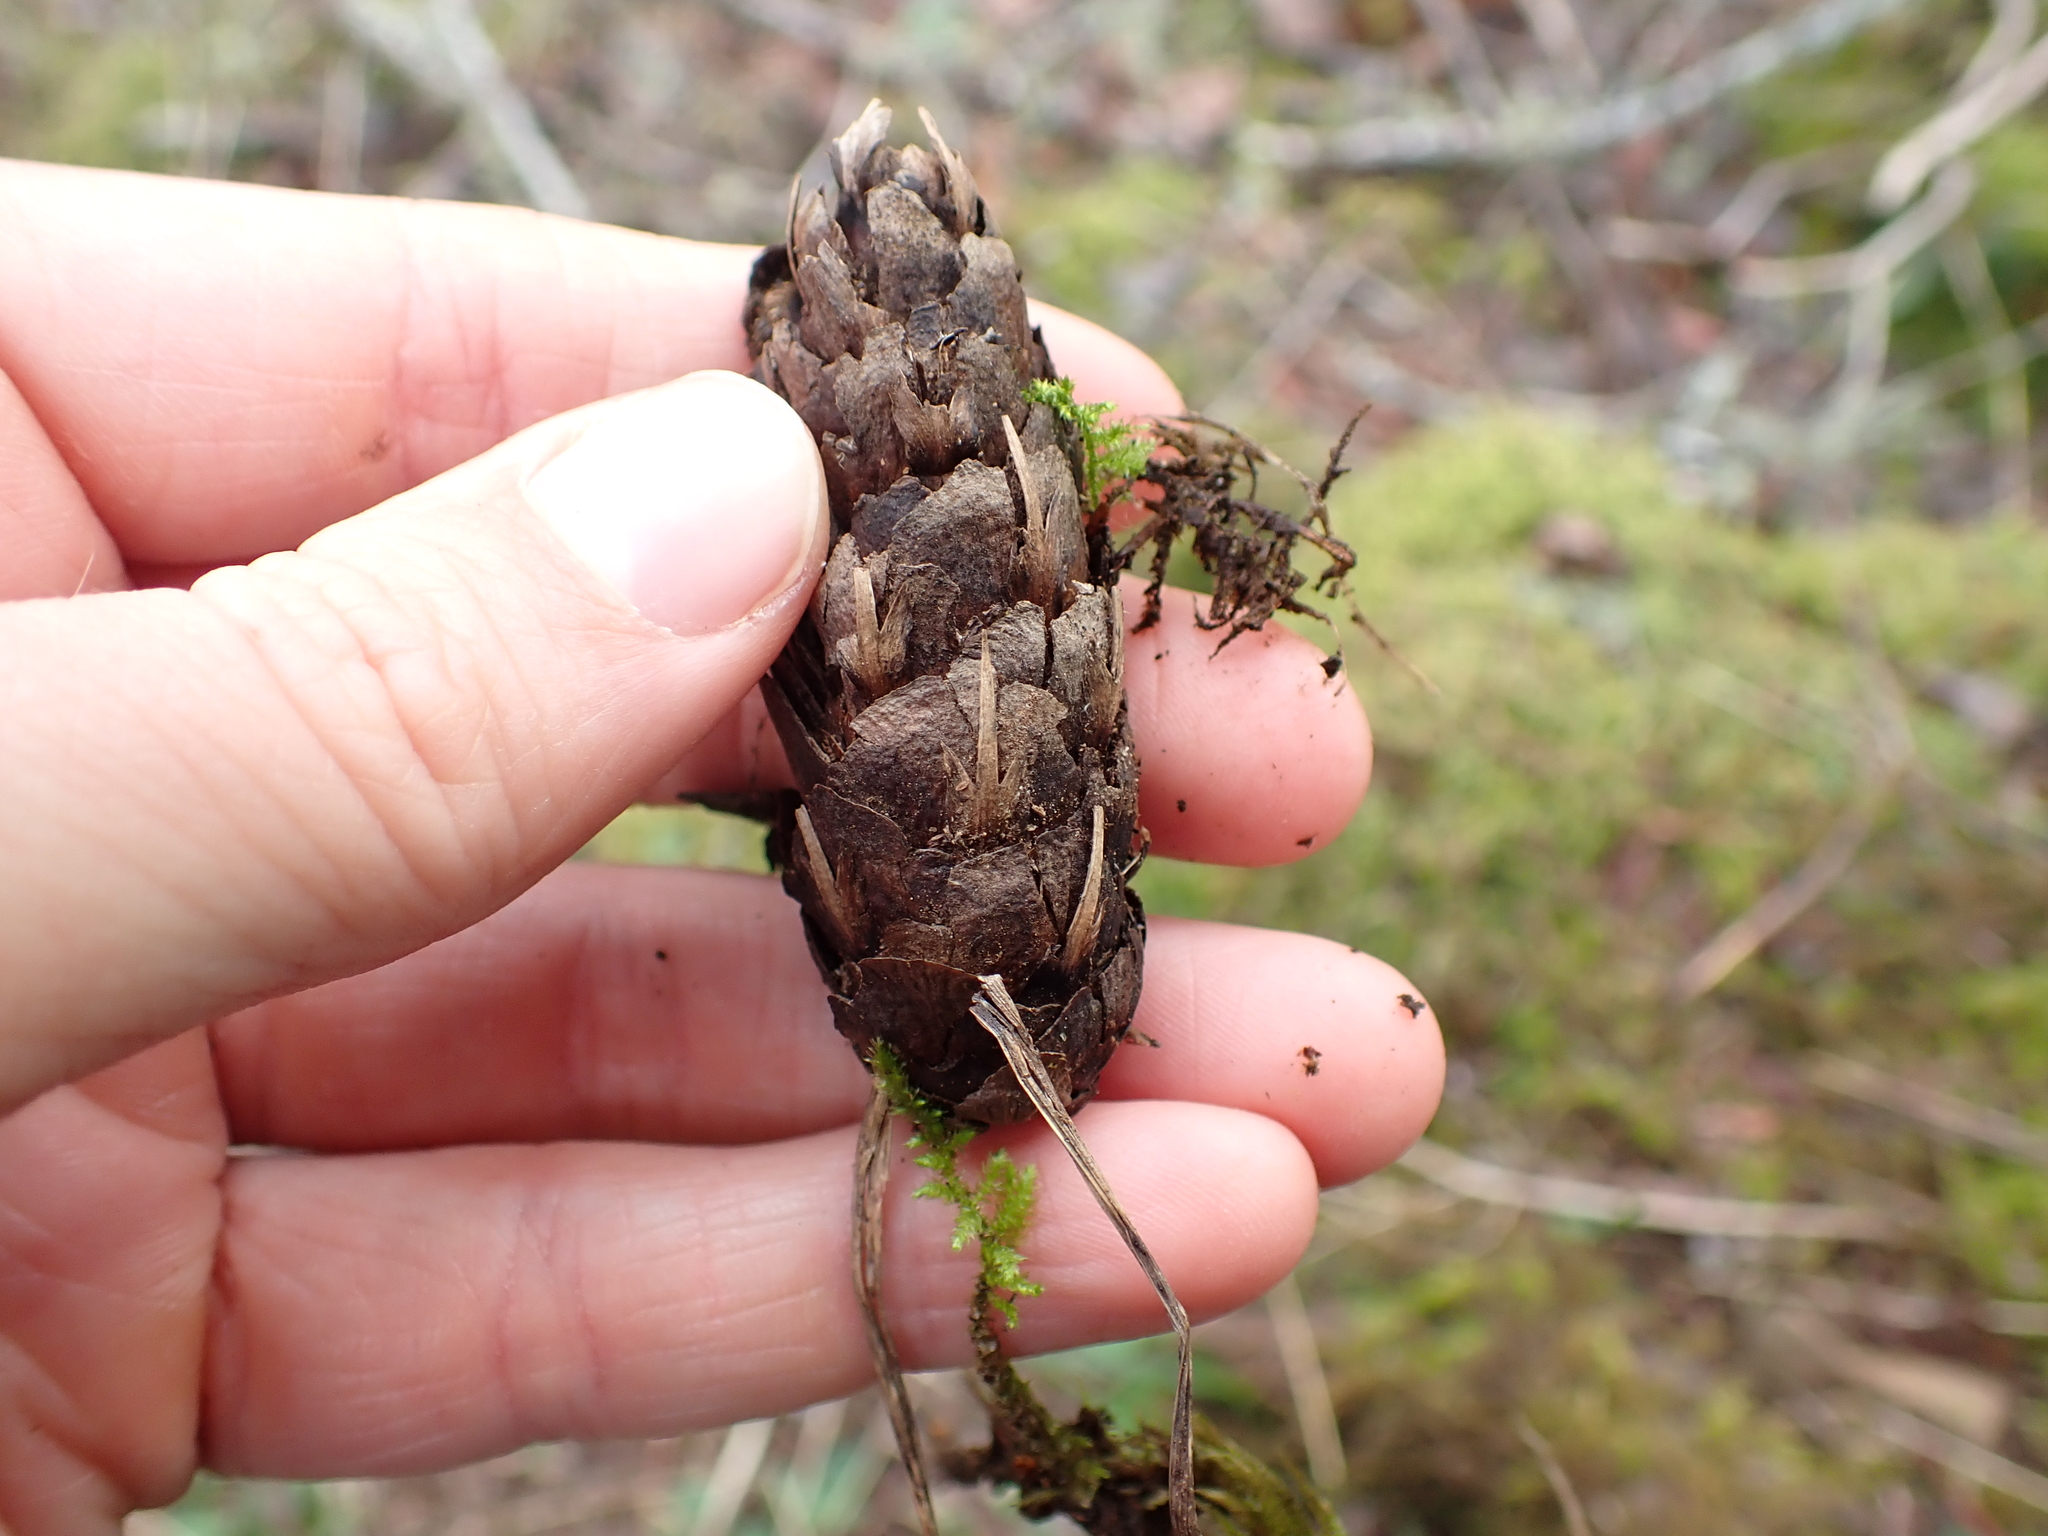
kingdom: Plantae
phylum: Tracheophyta
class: Pinopsida
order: Pinales
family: Pinaceae
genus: Pseudotsuga
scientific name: Pseudotsuga menziesii
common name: Douglas fir
